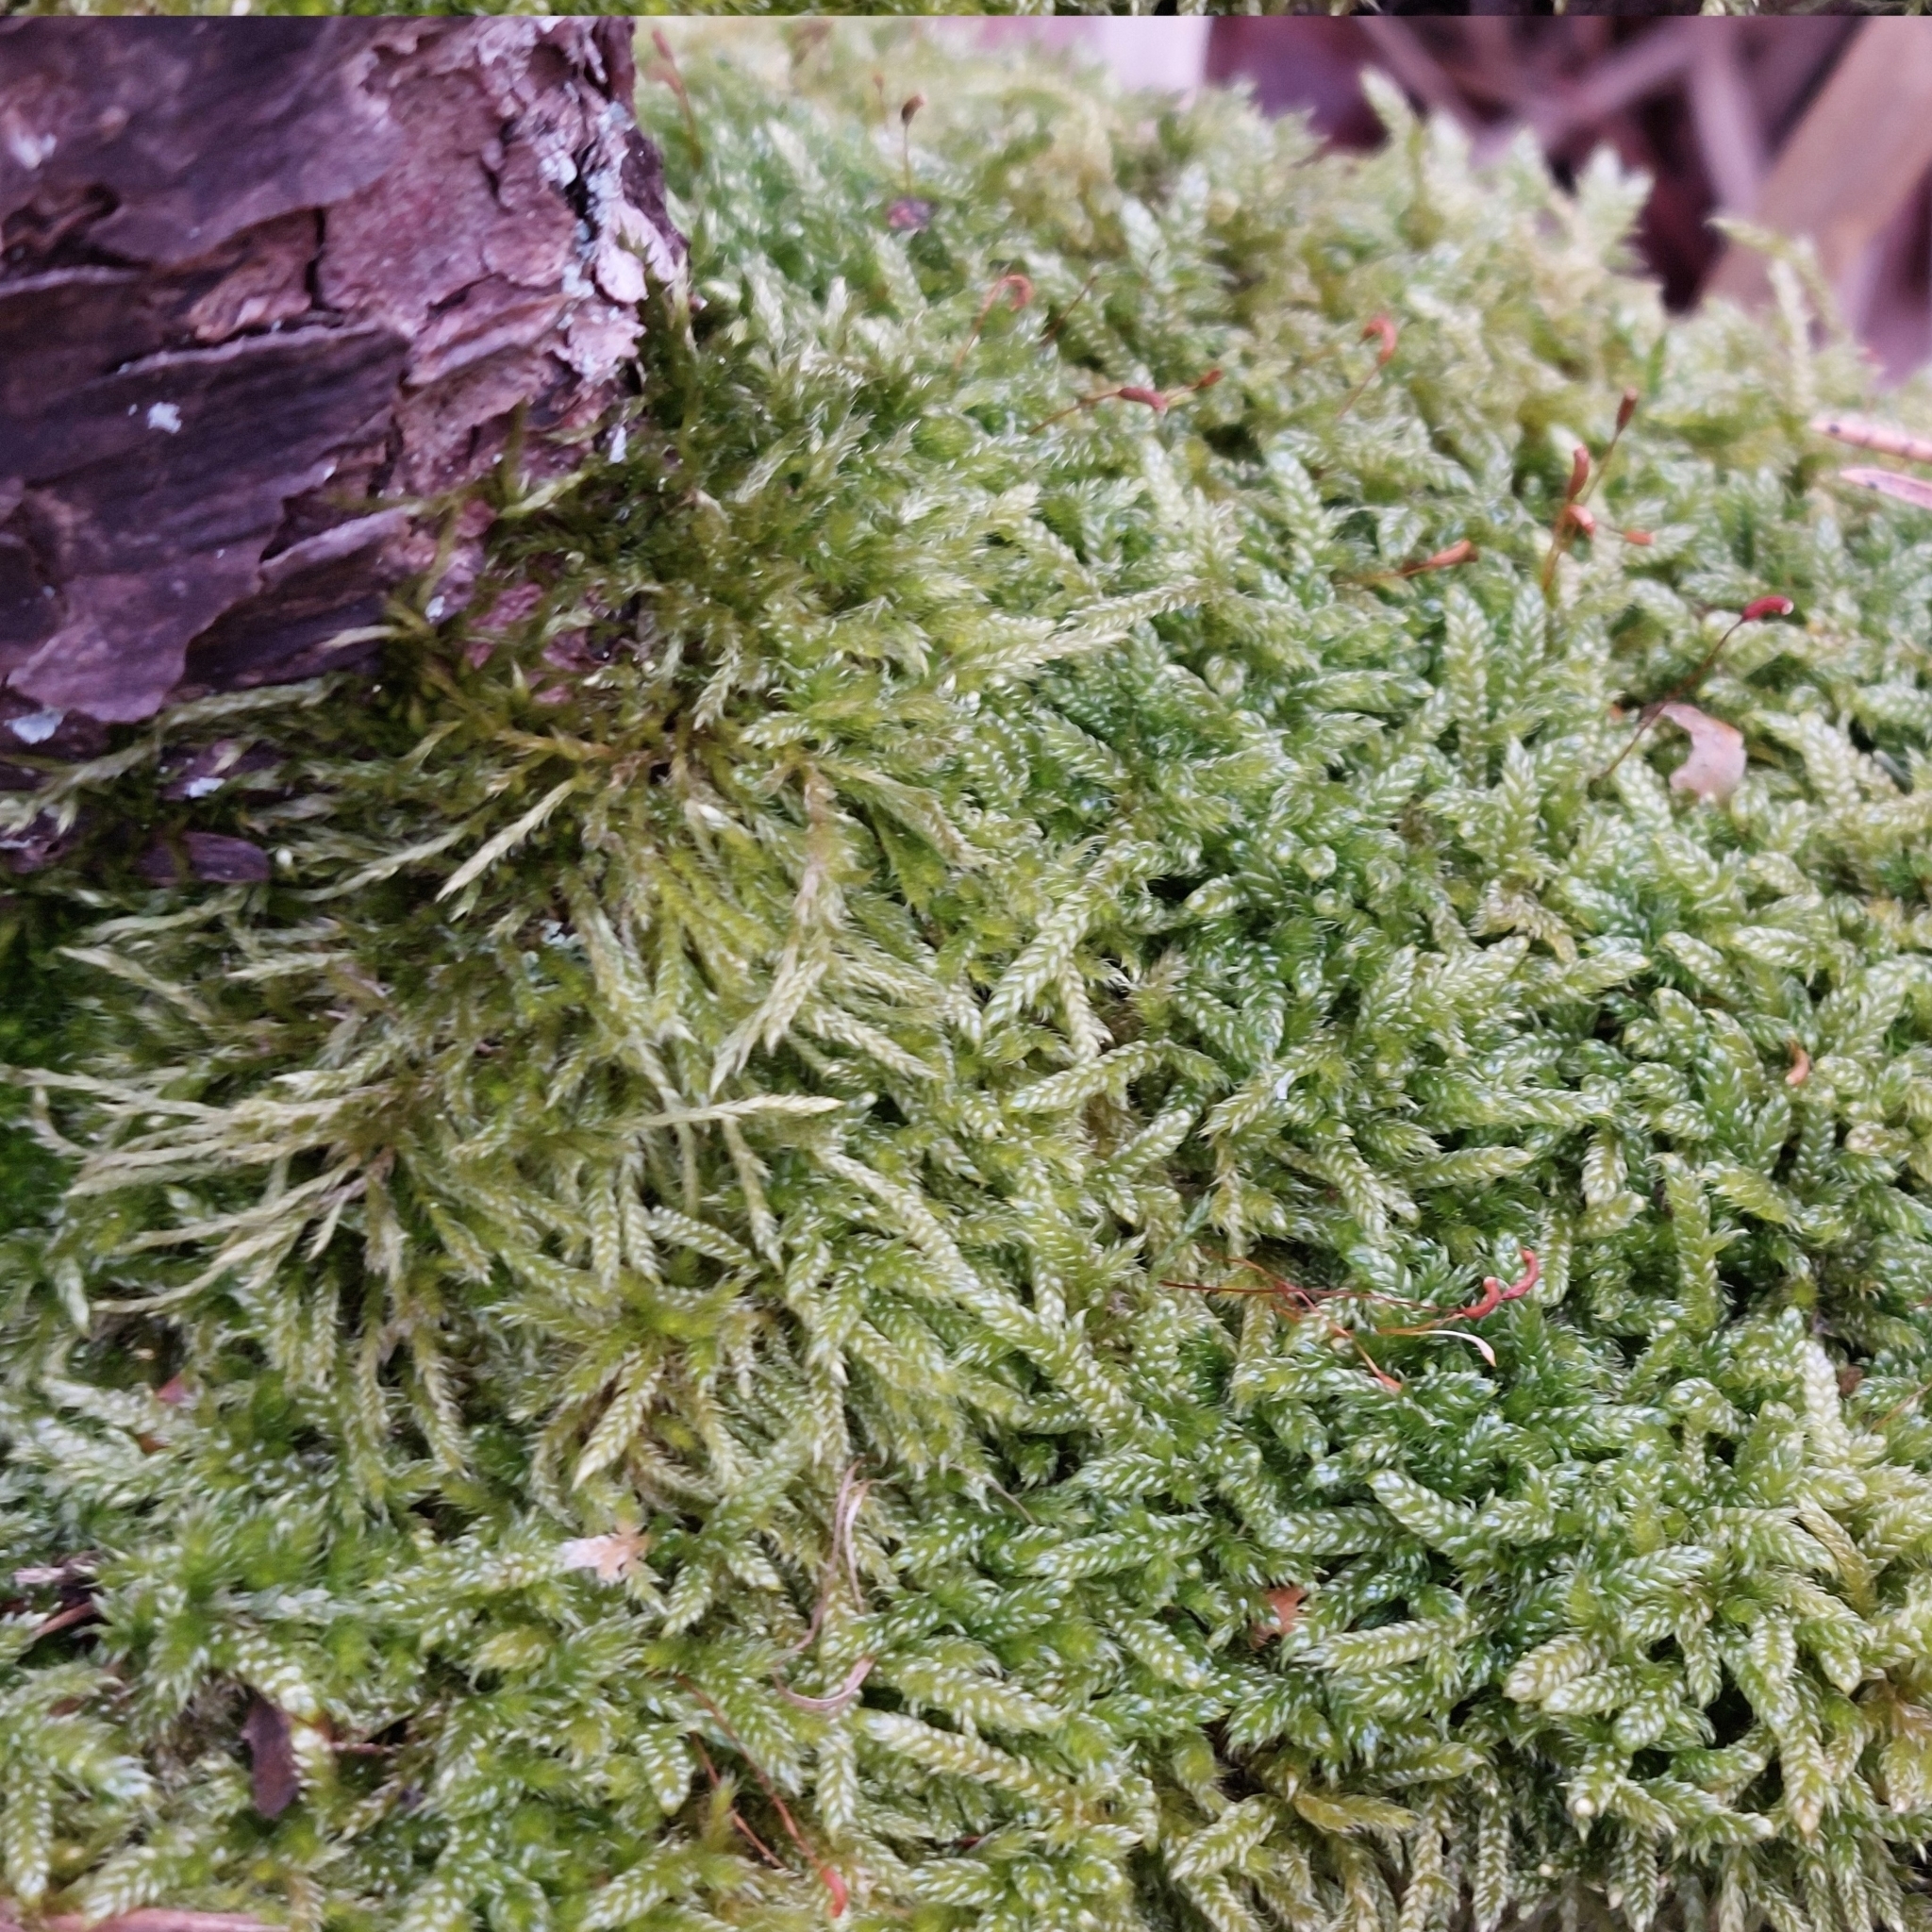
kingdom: Plantae
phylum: Bryophyta
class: Bryopsida
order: Hypnales
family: Hypnaceae
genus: Hypnum
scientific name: Hypnum cupressiforme
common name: Cypress-leaved plait-moss
